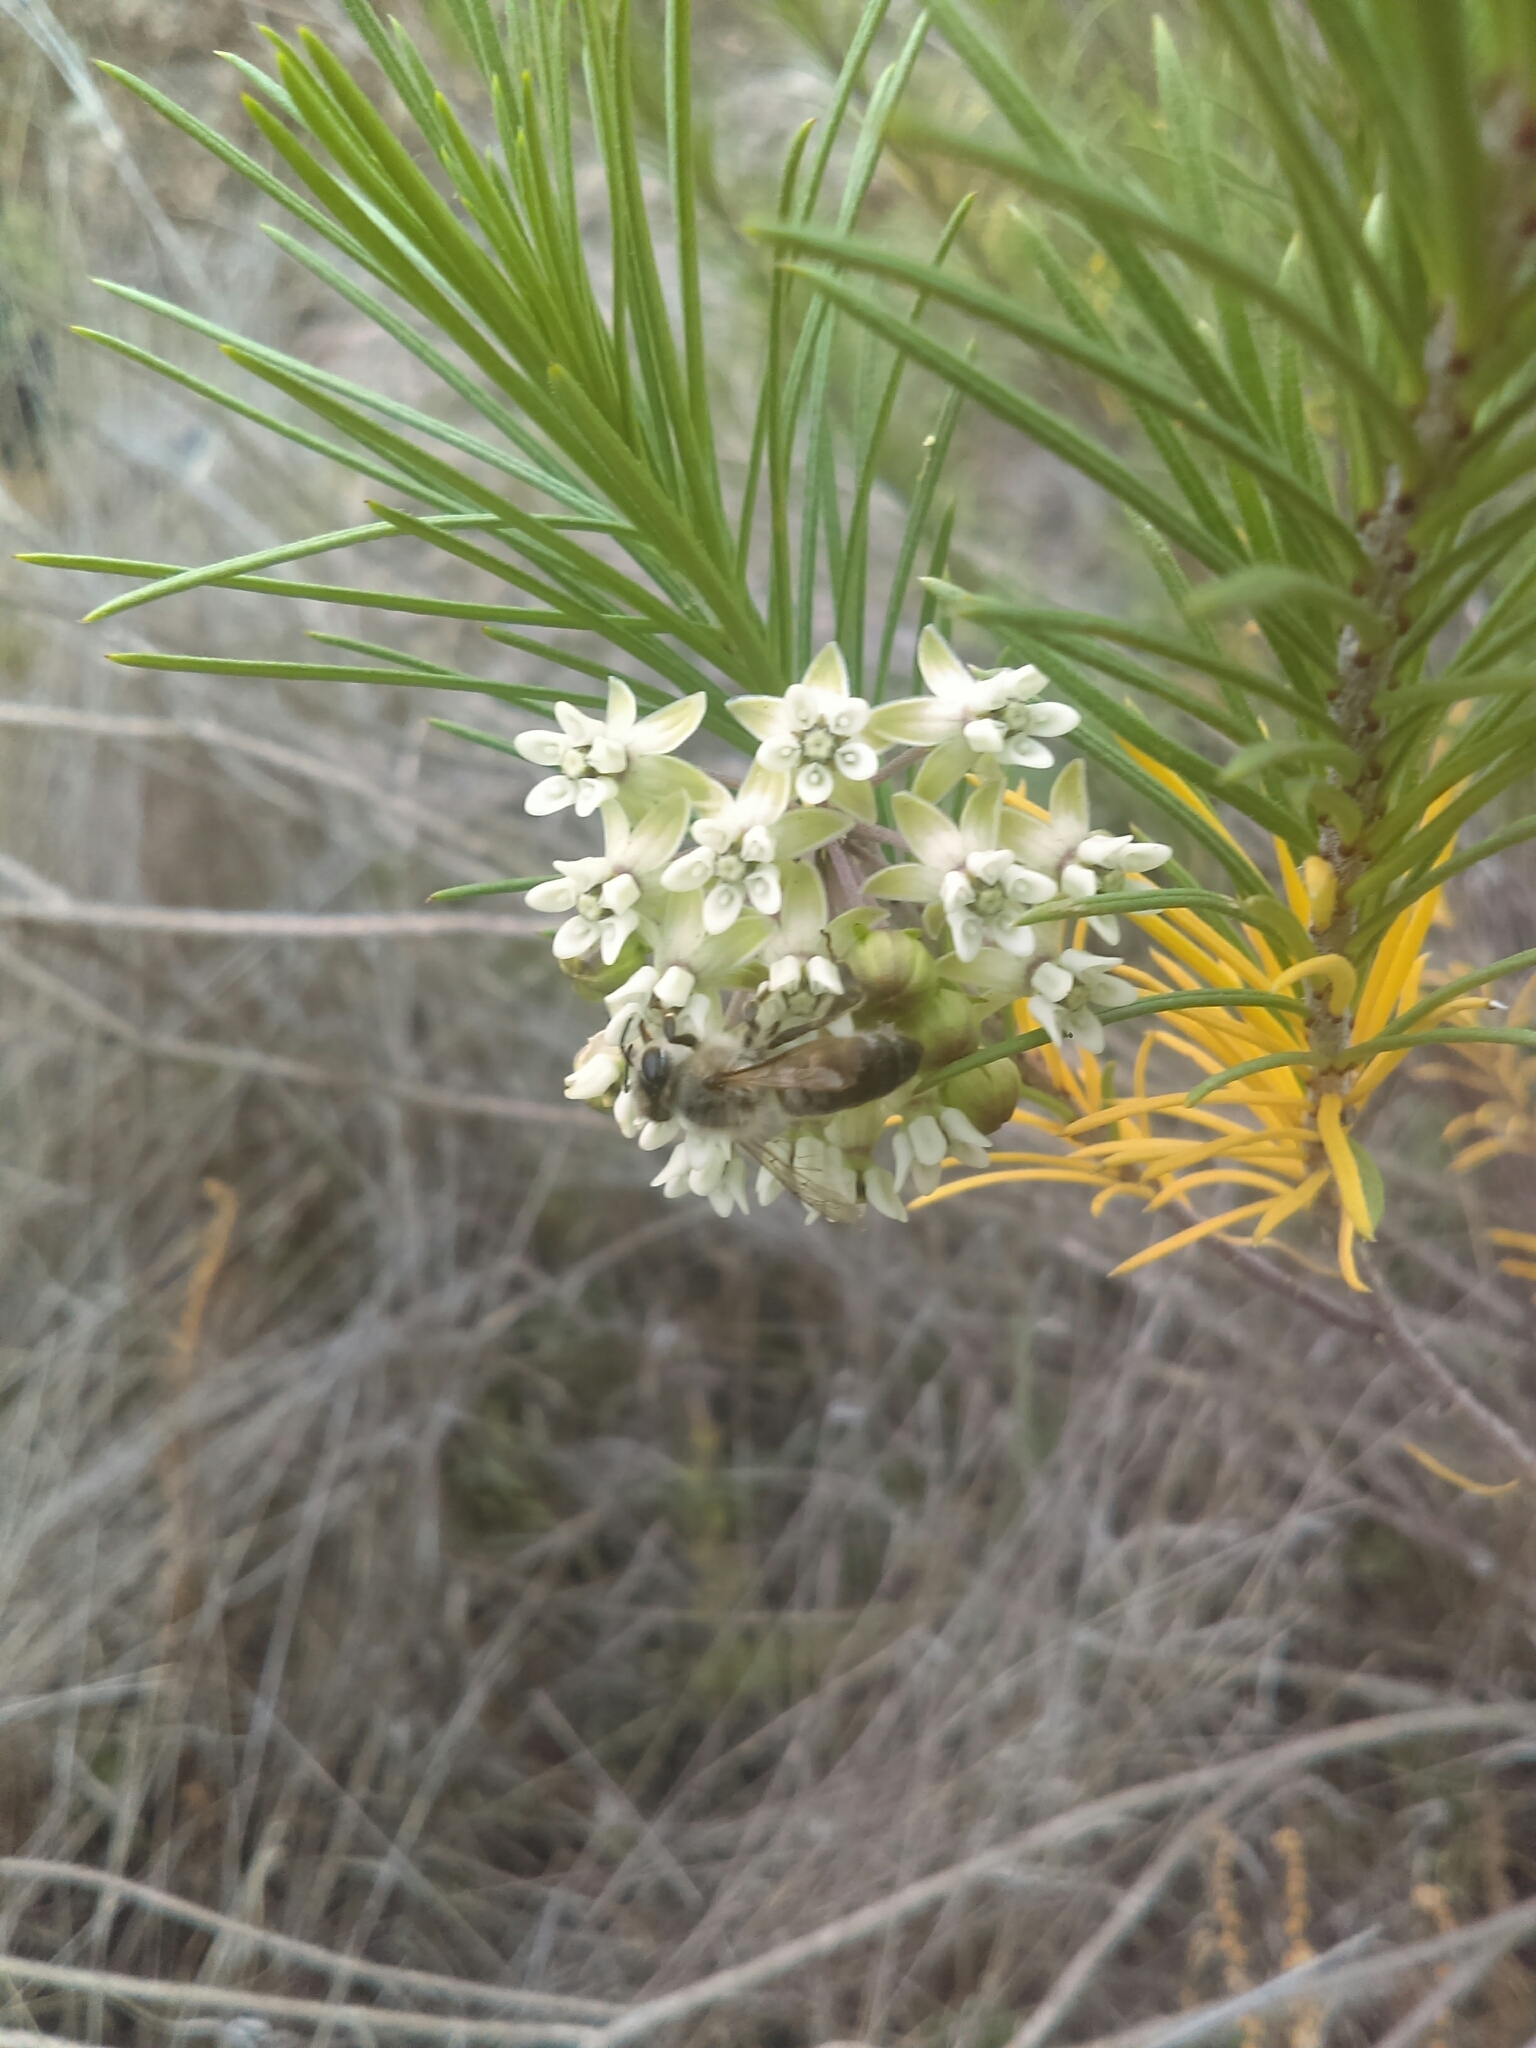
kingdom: Animalia
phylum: Arthropoda
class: Insecta
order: Hymenoptera
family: Apidae
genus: Apis
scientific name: Apis mellifera
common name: Honey bee
